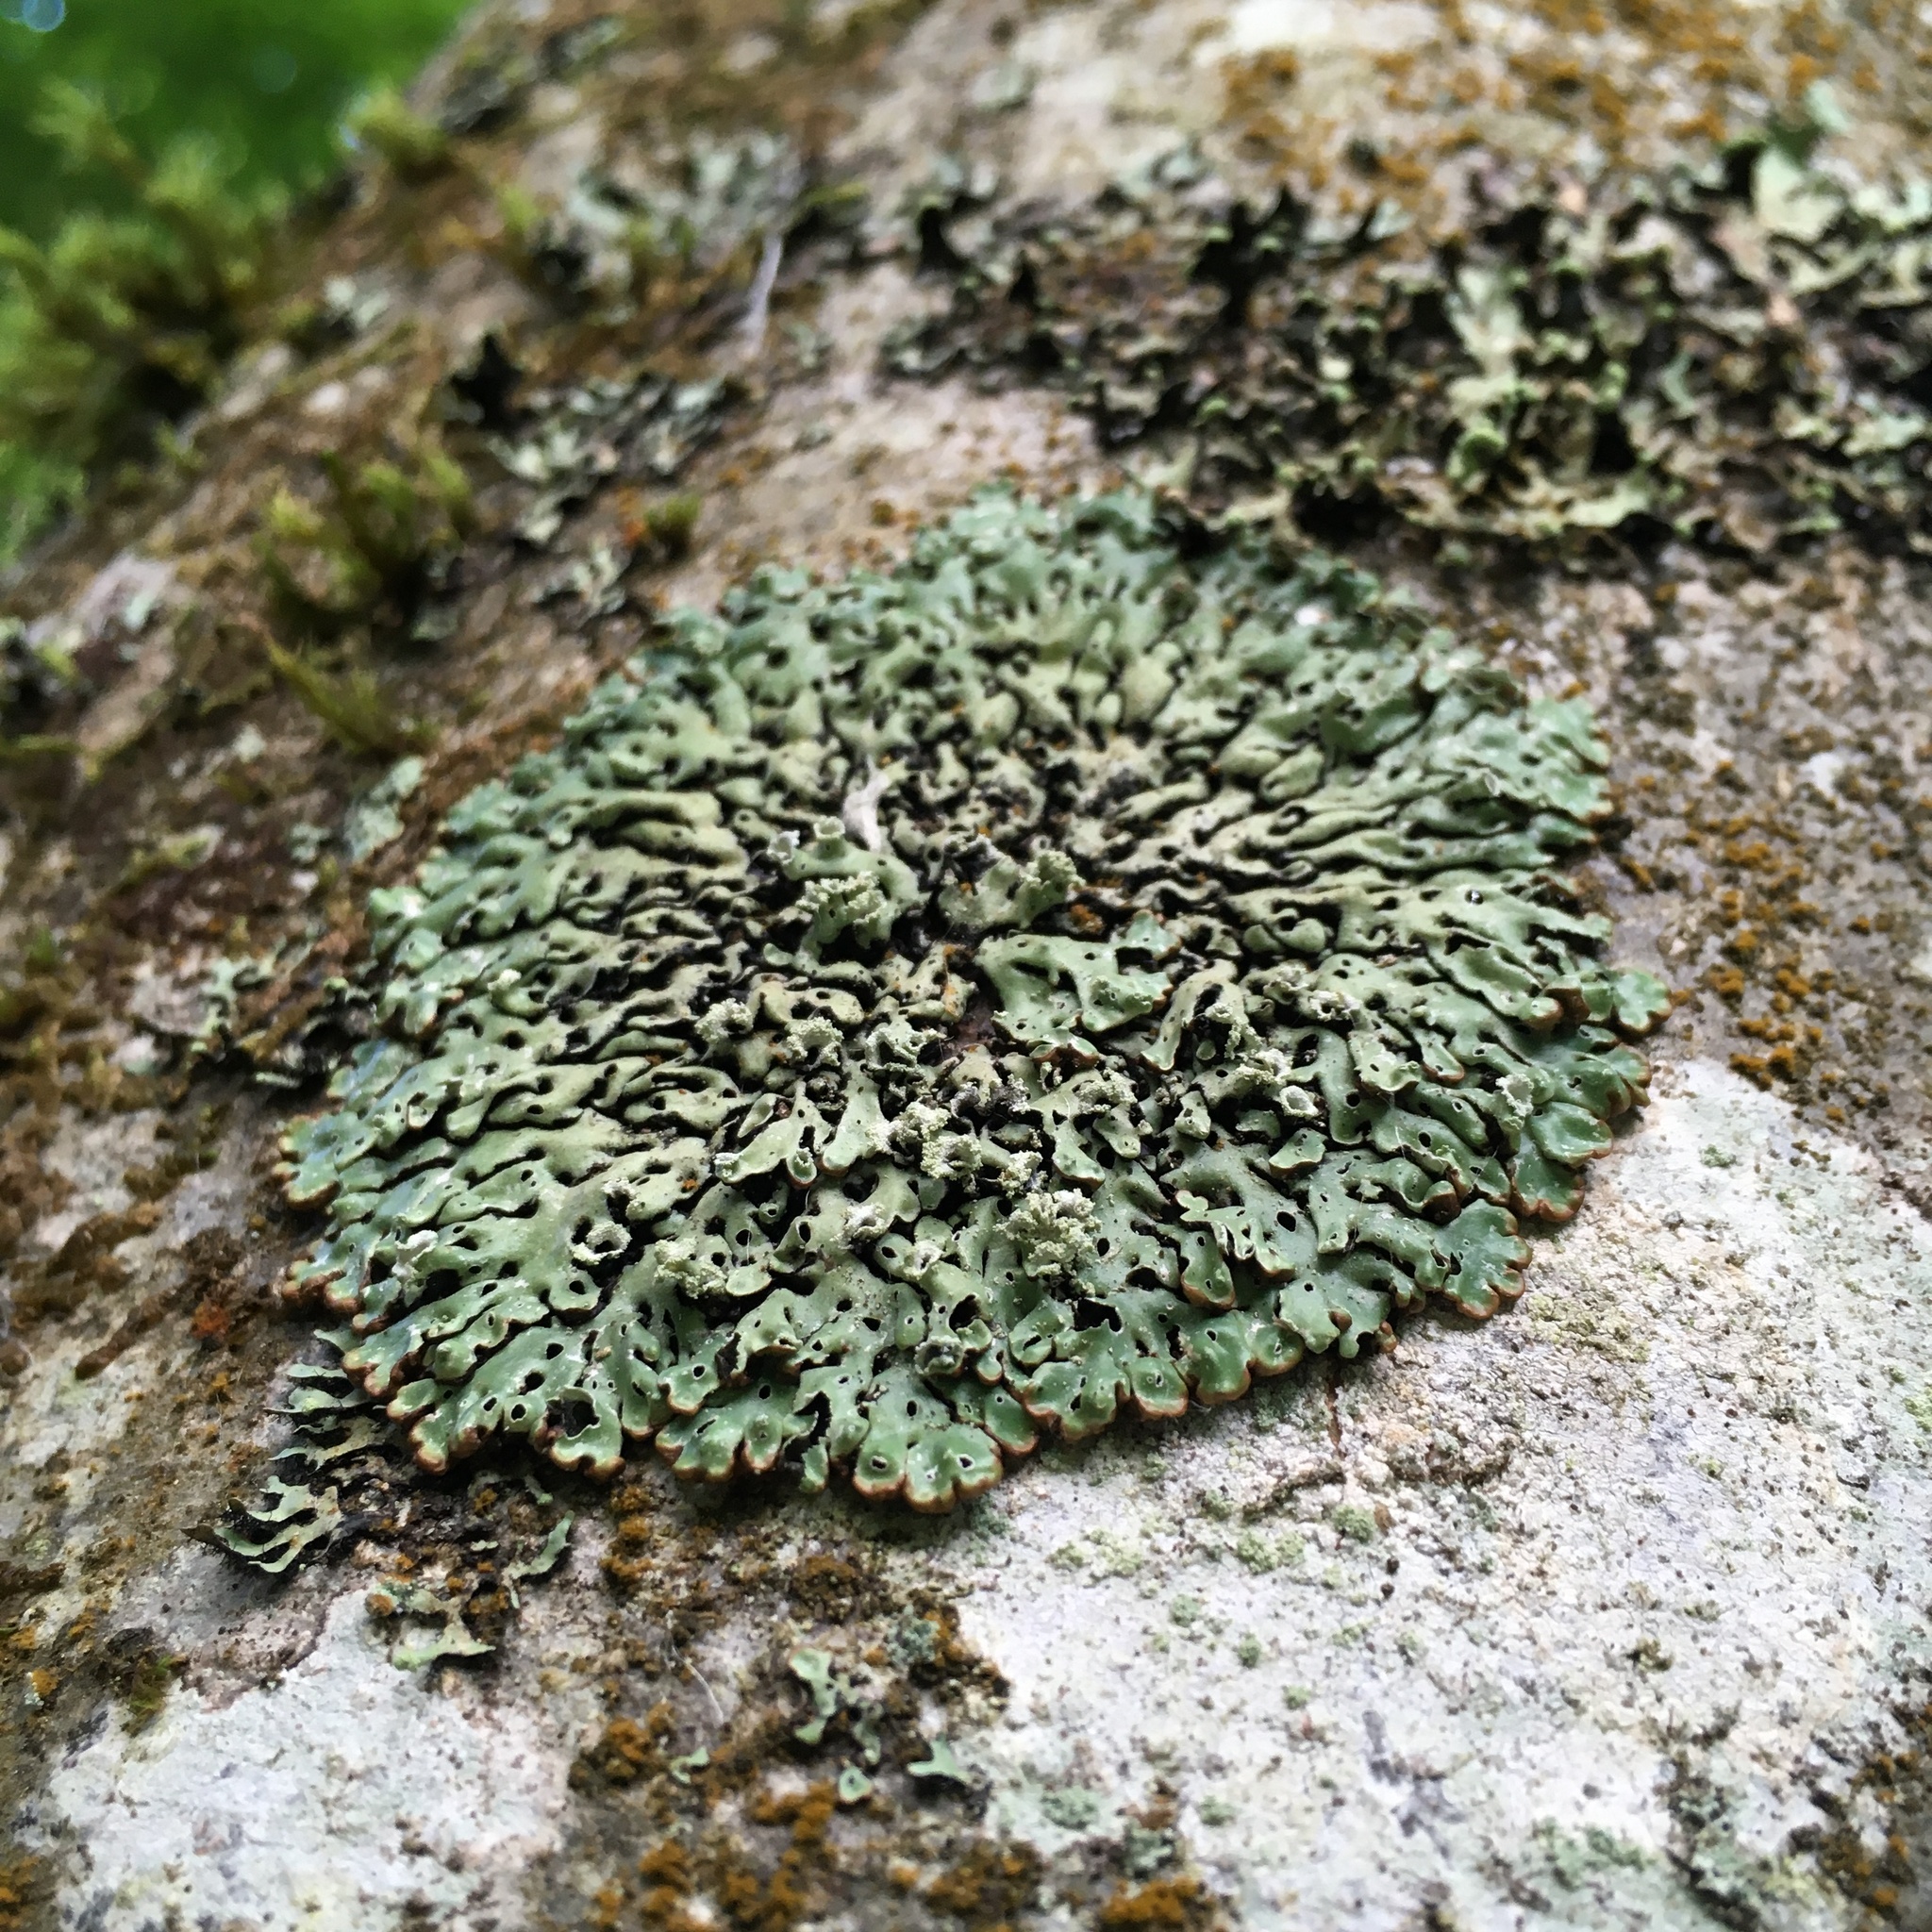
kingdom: Fungi
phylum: Ascomycota
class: Lecanoromycetes
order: Lecanorales
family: Parmeliaceae
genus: Menegazzia
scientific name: Menegazzia subsimilis
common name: Tree flute lichen
